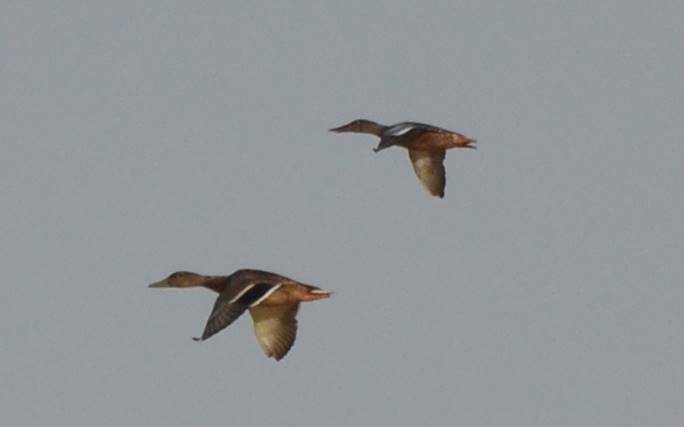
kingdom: Animalia
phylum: Chordata
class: Aves
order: Anseriformes
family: Anatidae
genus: Anas
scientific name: Anas platyrhynchos
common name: Mallard
